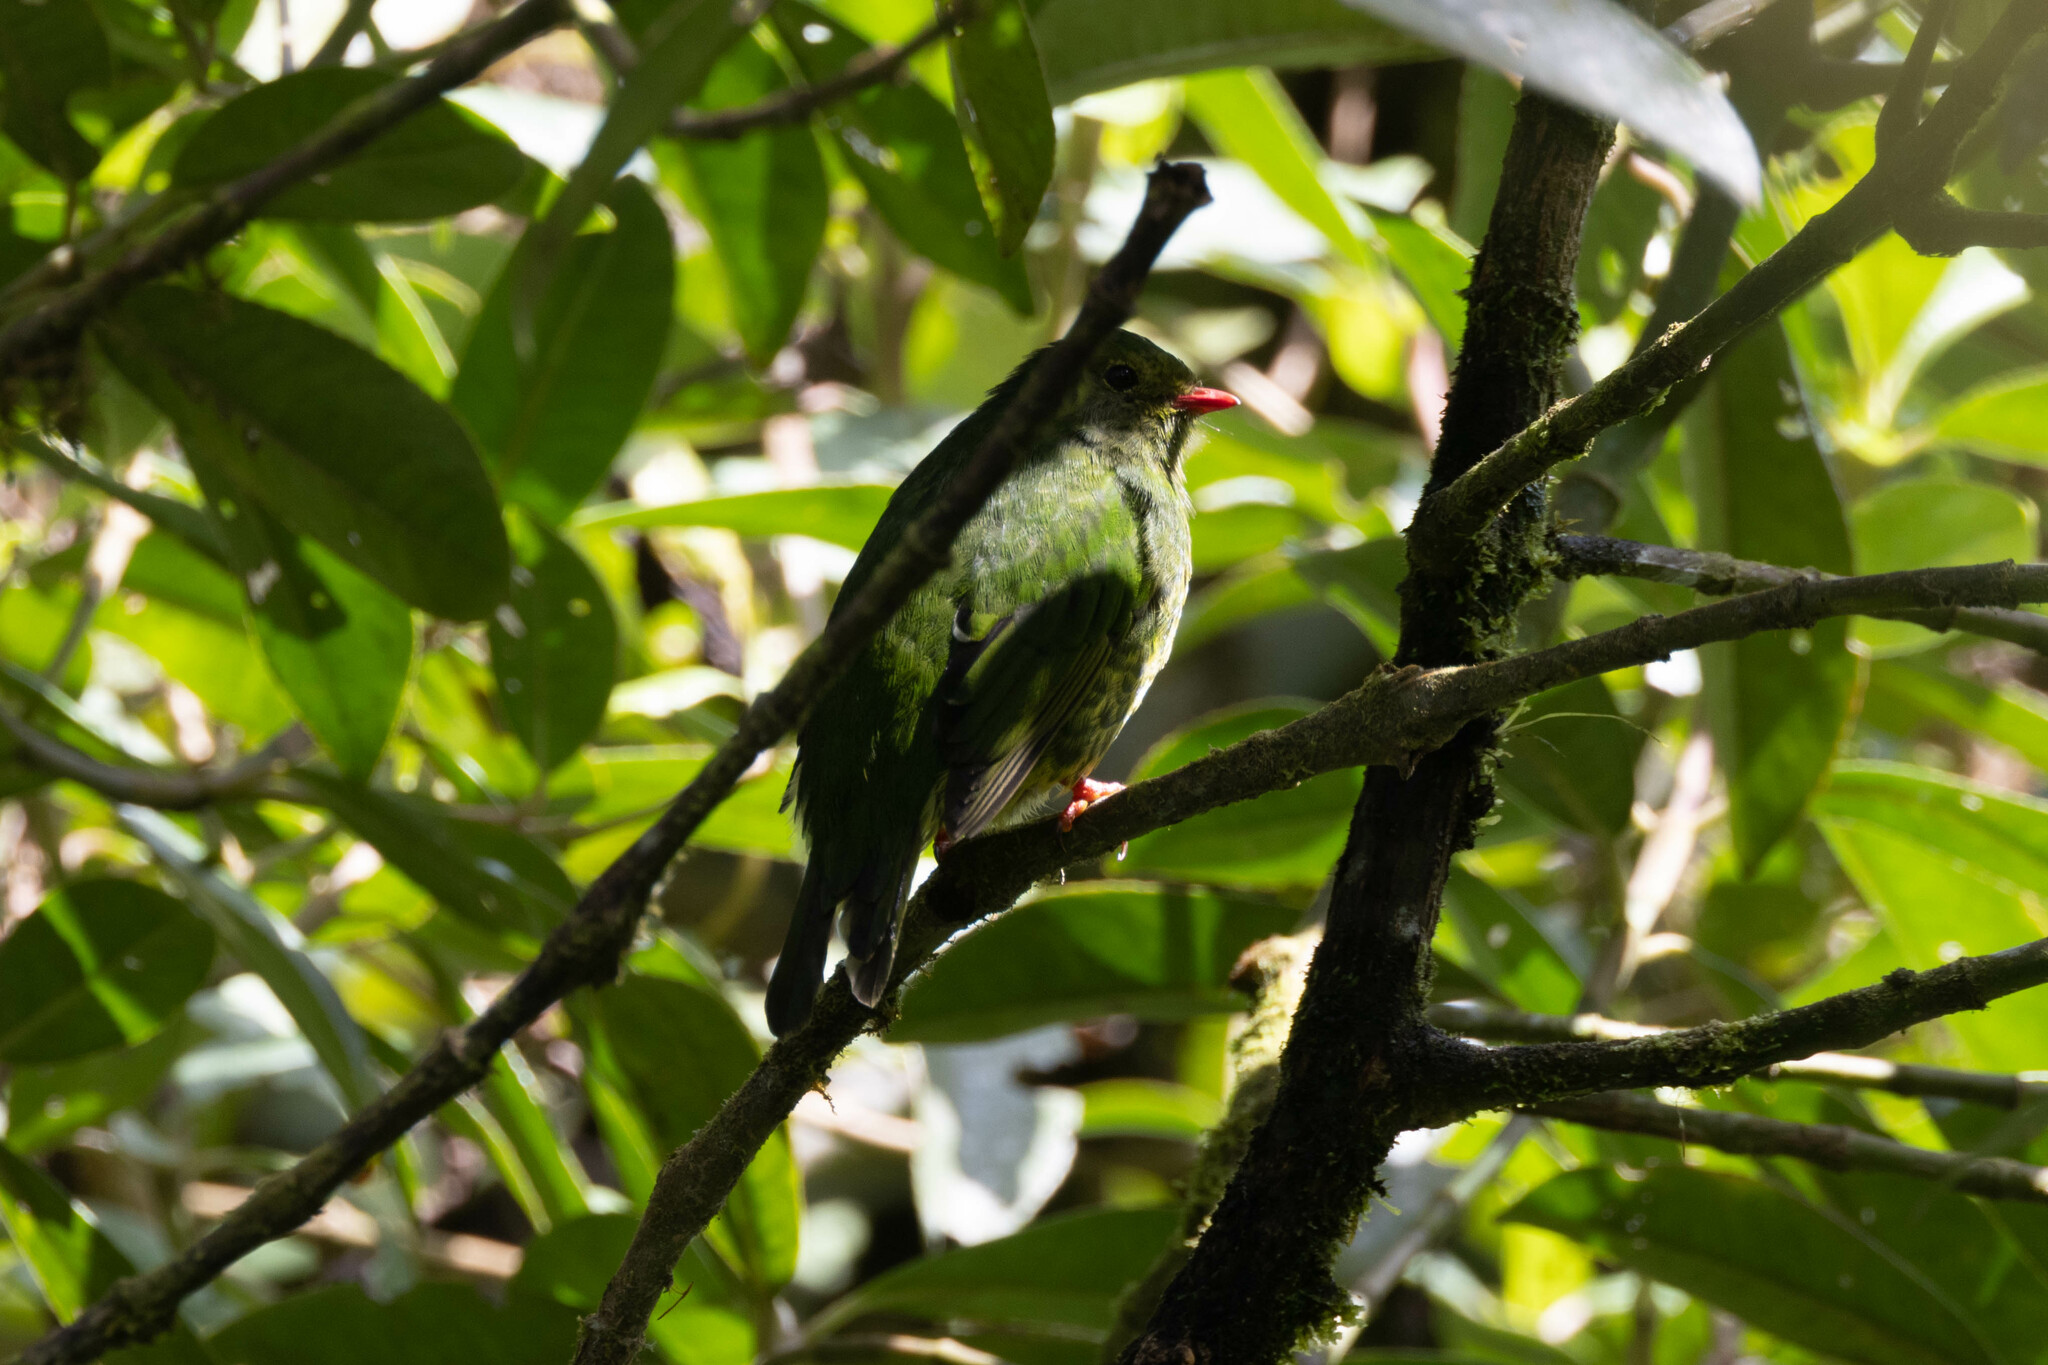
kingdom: Animalia
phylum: Chordata
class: Aves
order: Passeriformes
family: Cotingidae
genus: Pipreola
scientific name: Pipreola riefferii
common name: Green-and-black fruiteater
